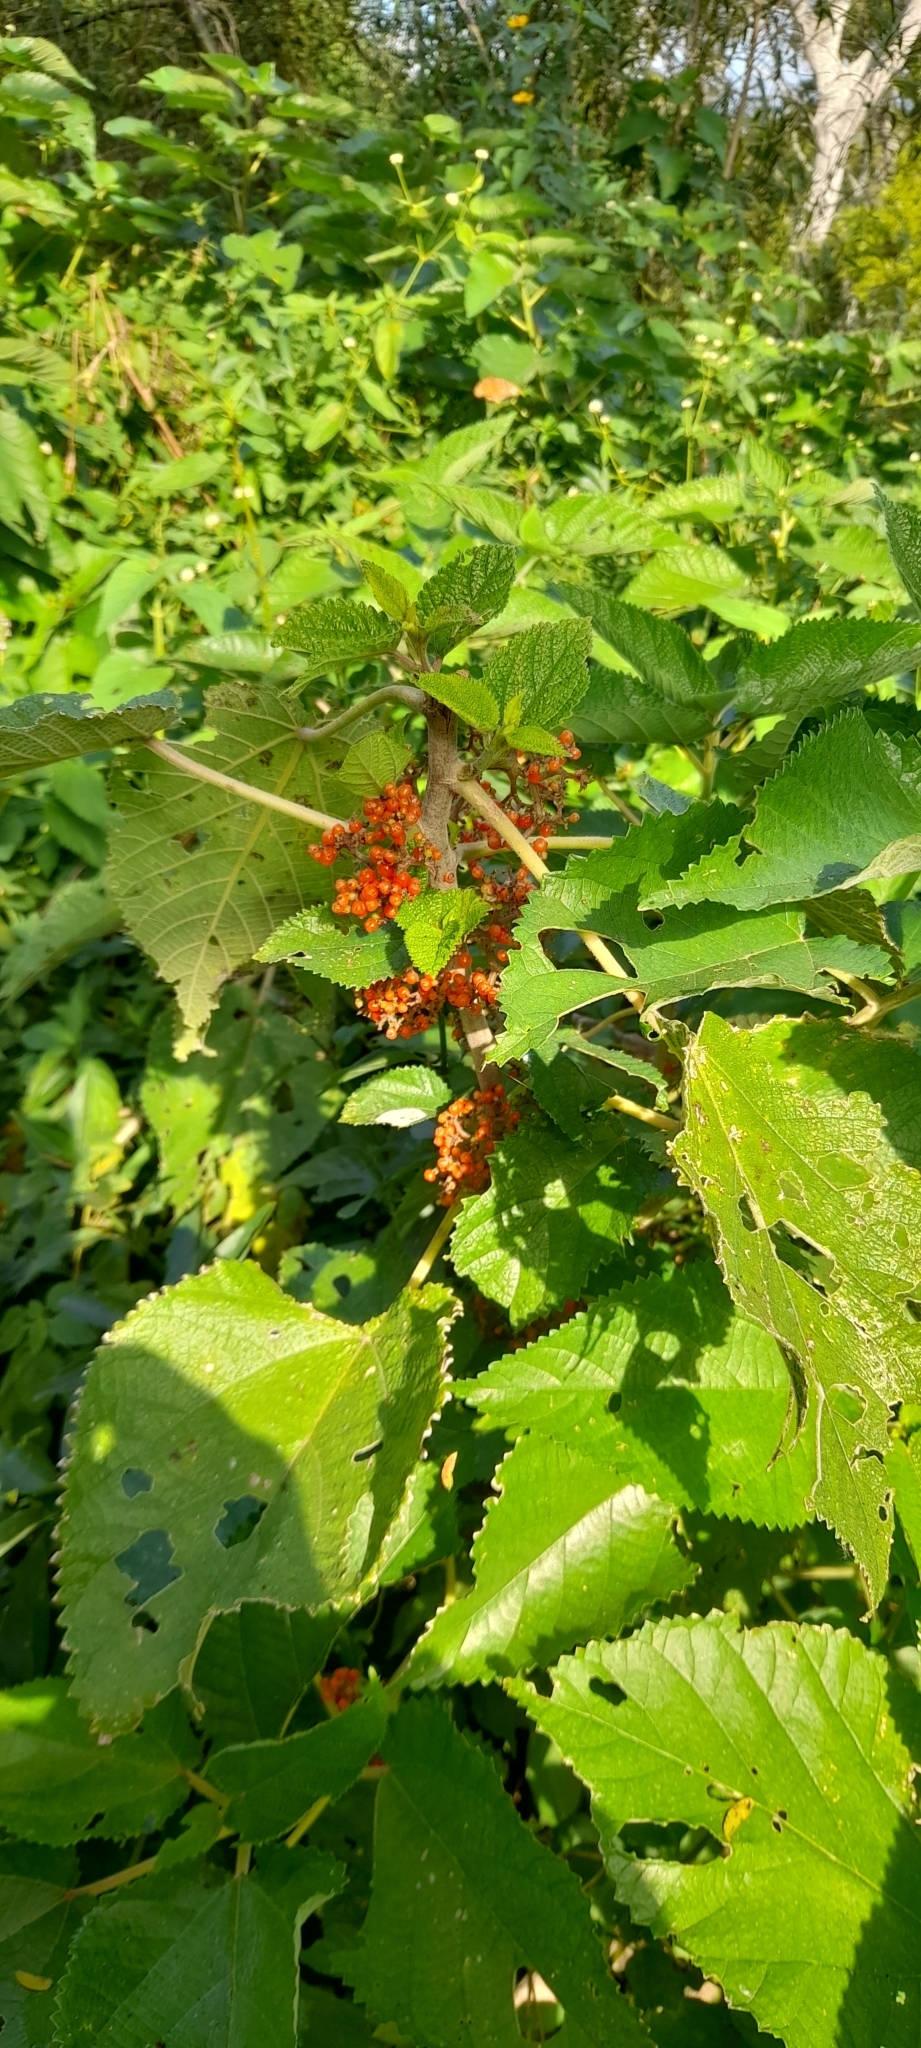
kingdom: Plantae
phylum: Tracheophyta
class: Magnoliopsida
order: Rosales
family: Urticaceae
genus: Urera
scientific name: Urera aurantiaca
